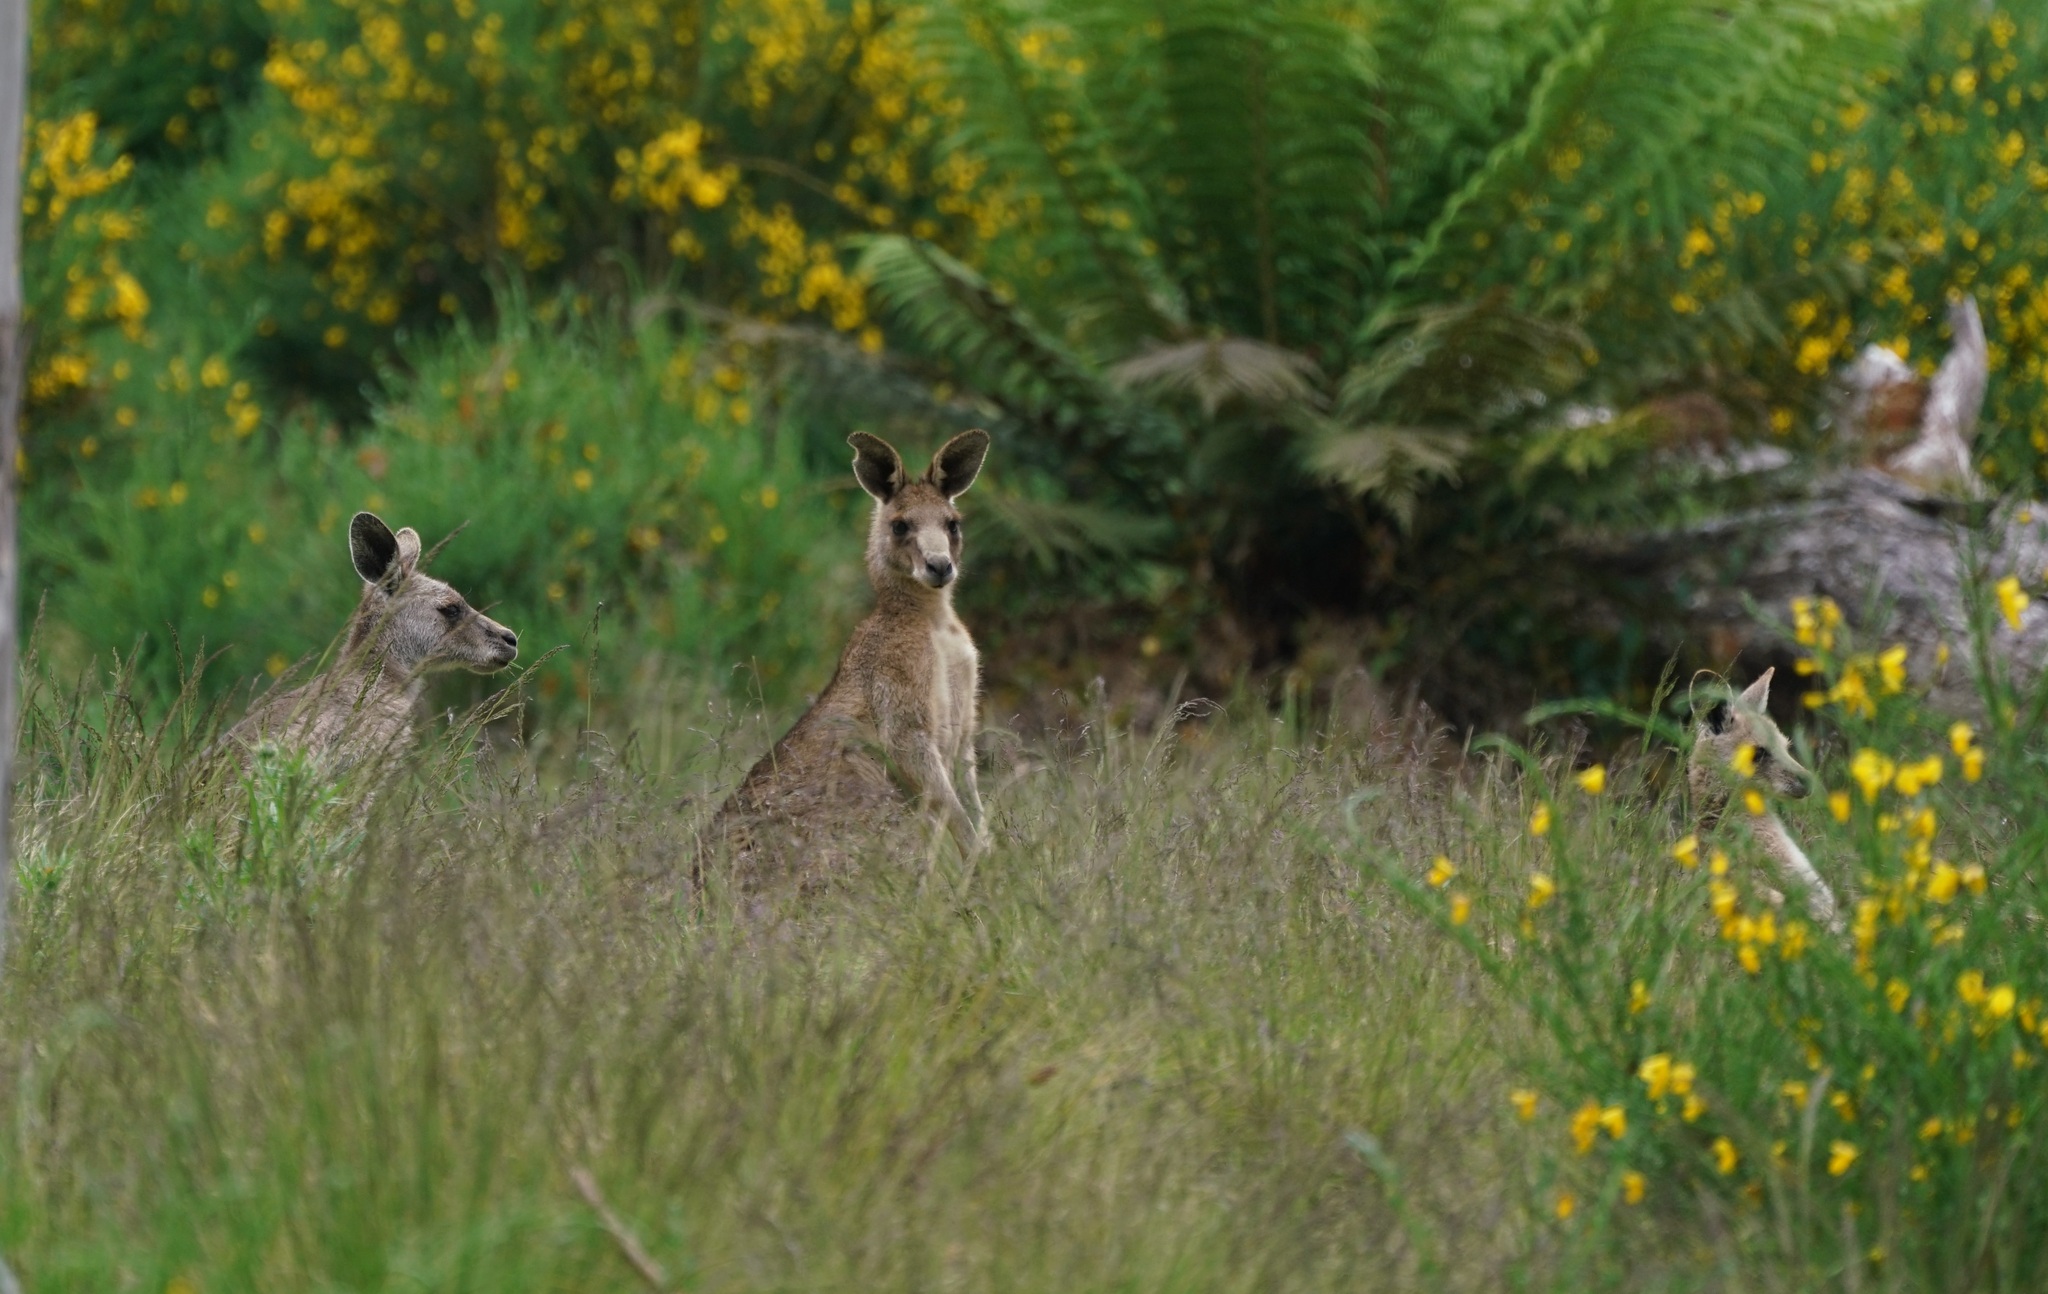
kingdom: Animalia
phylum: Chordata
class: Mammalia
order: Diprotodontia
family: Macropodidae
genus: Macropus
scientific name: Macropus giganteus
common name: Eastern grey kangaroo
